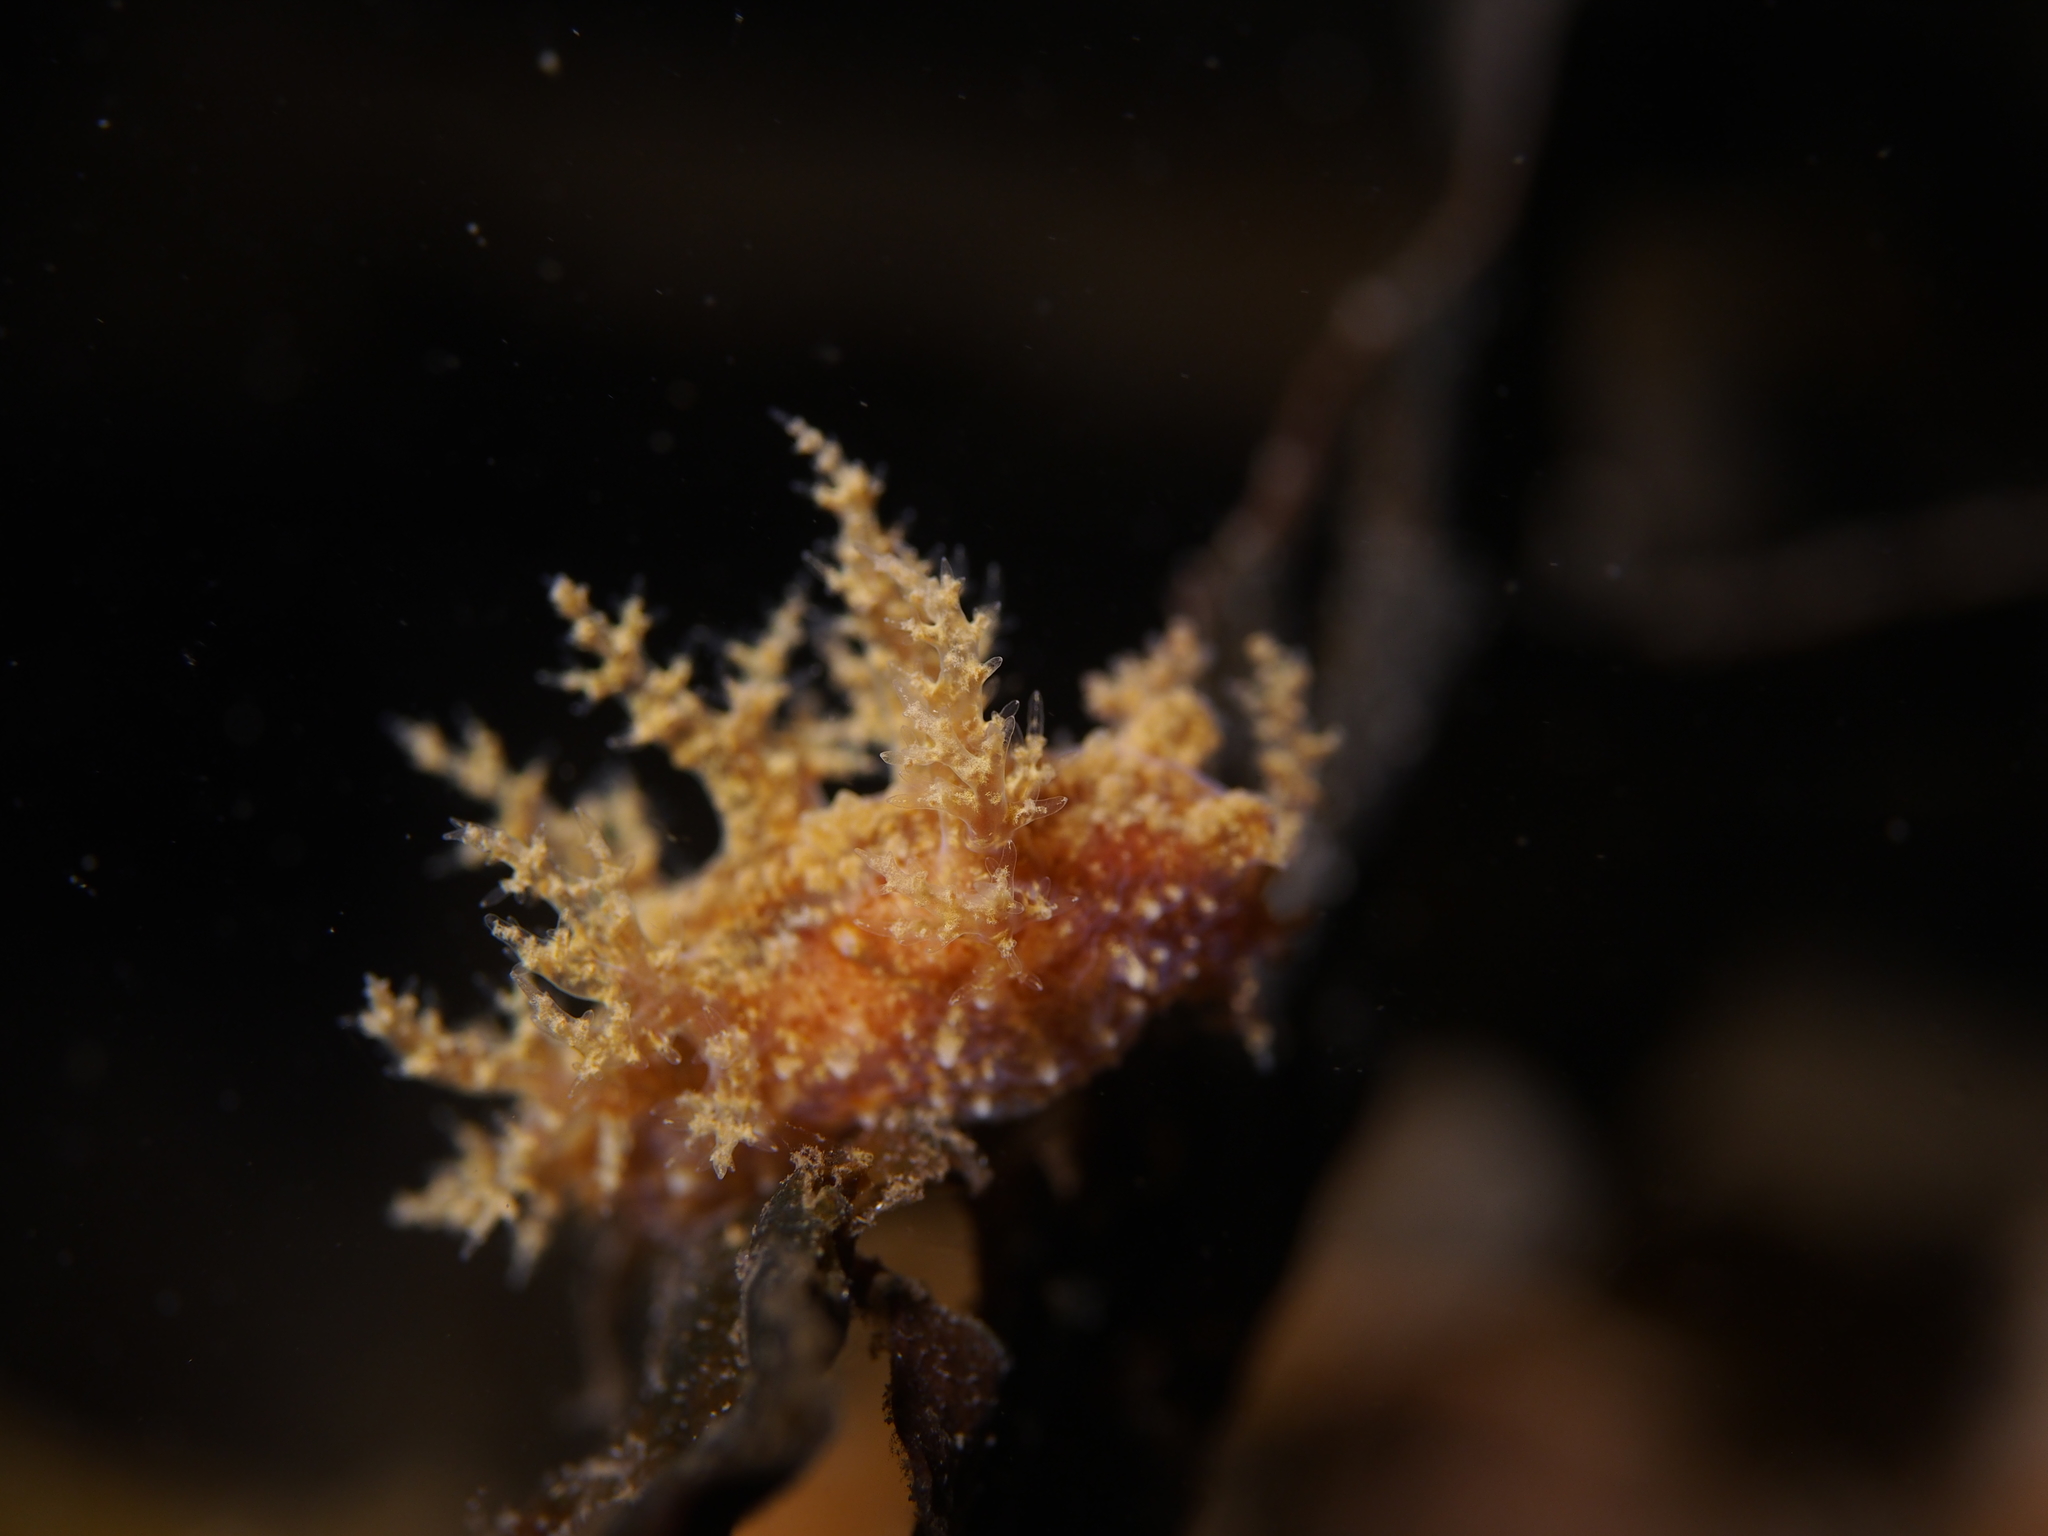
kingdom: Animalia
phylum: Mollusca
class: Gastropoda
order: Nudibranchia
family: Dendronotidae
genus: Dendronotus
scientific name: Dendronotus frondosus
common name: Bushy-backed nudibranch
